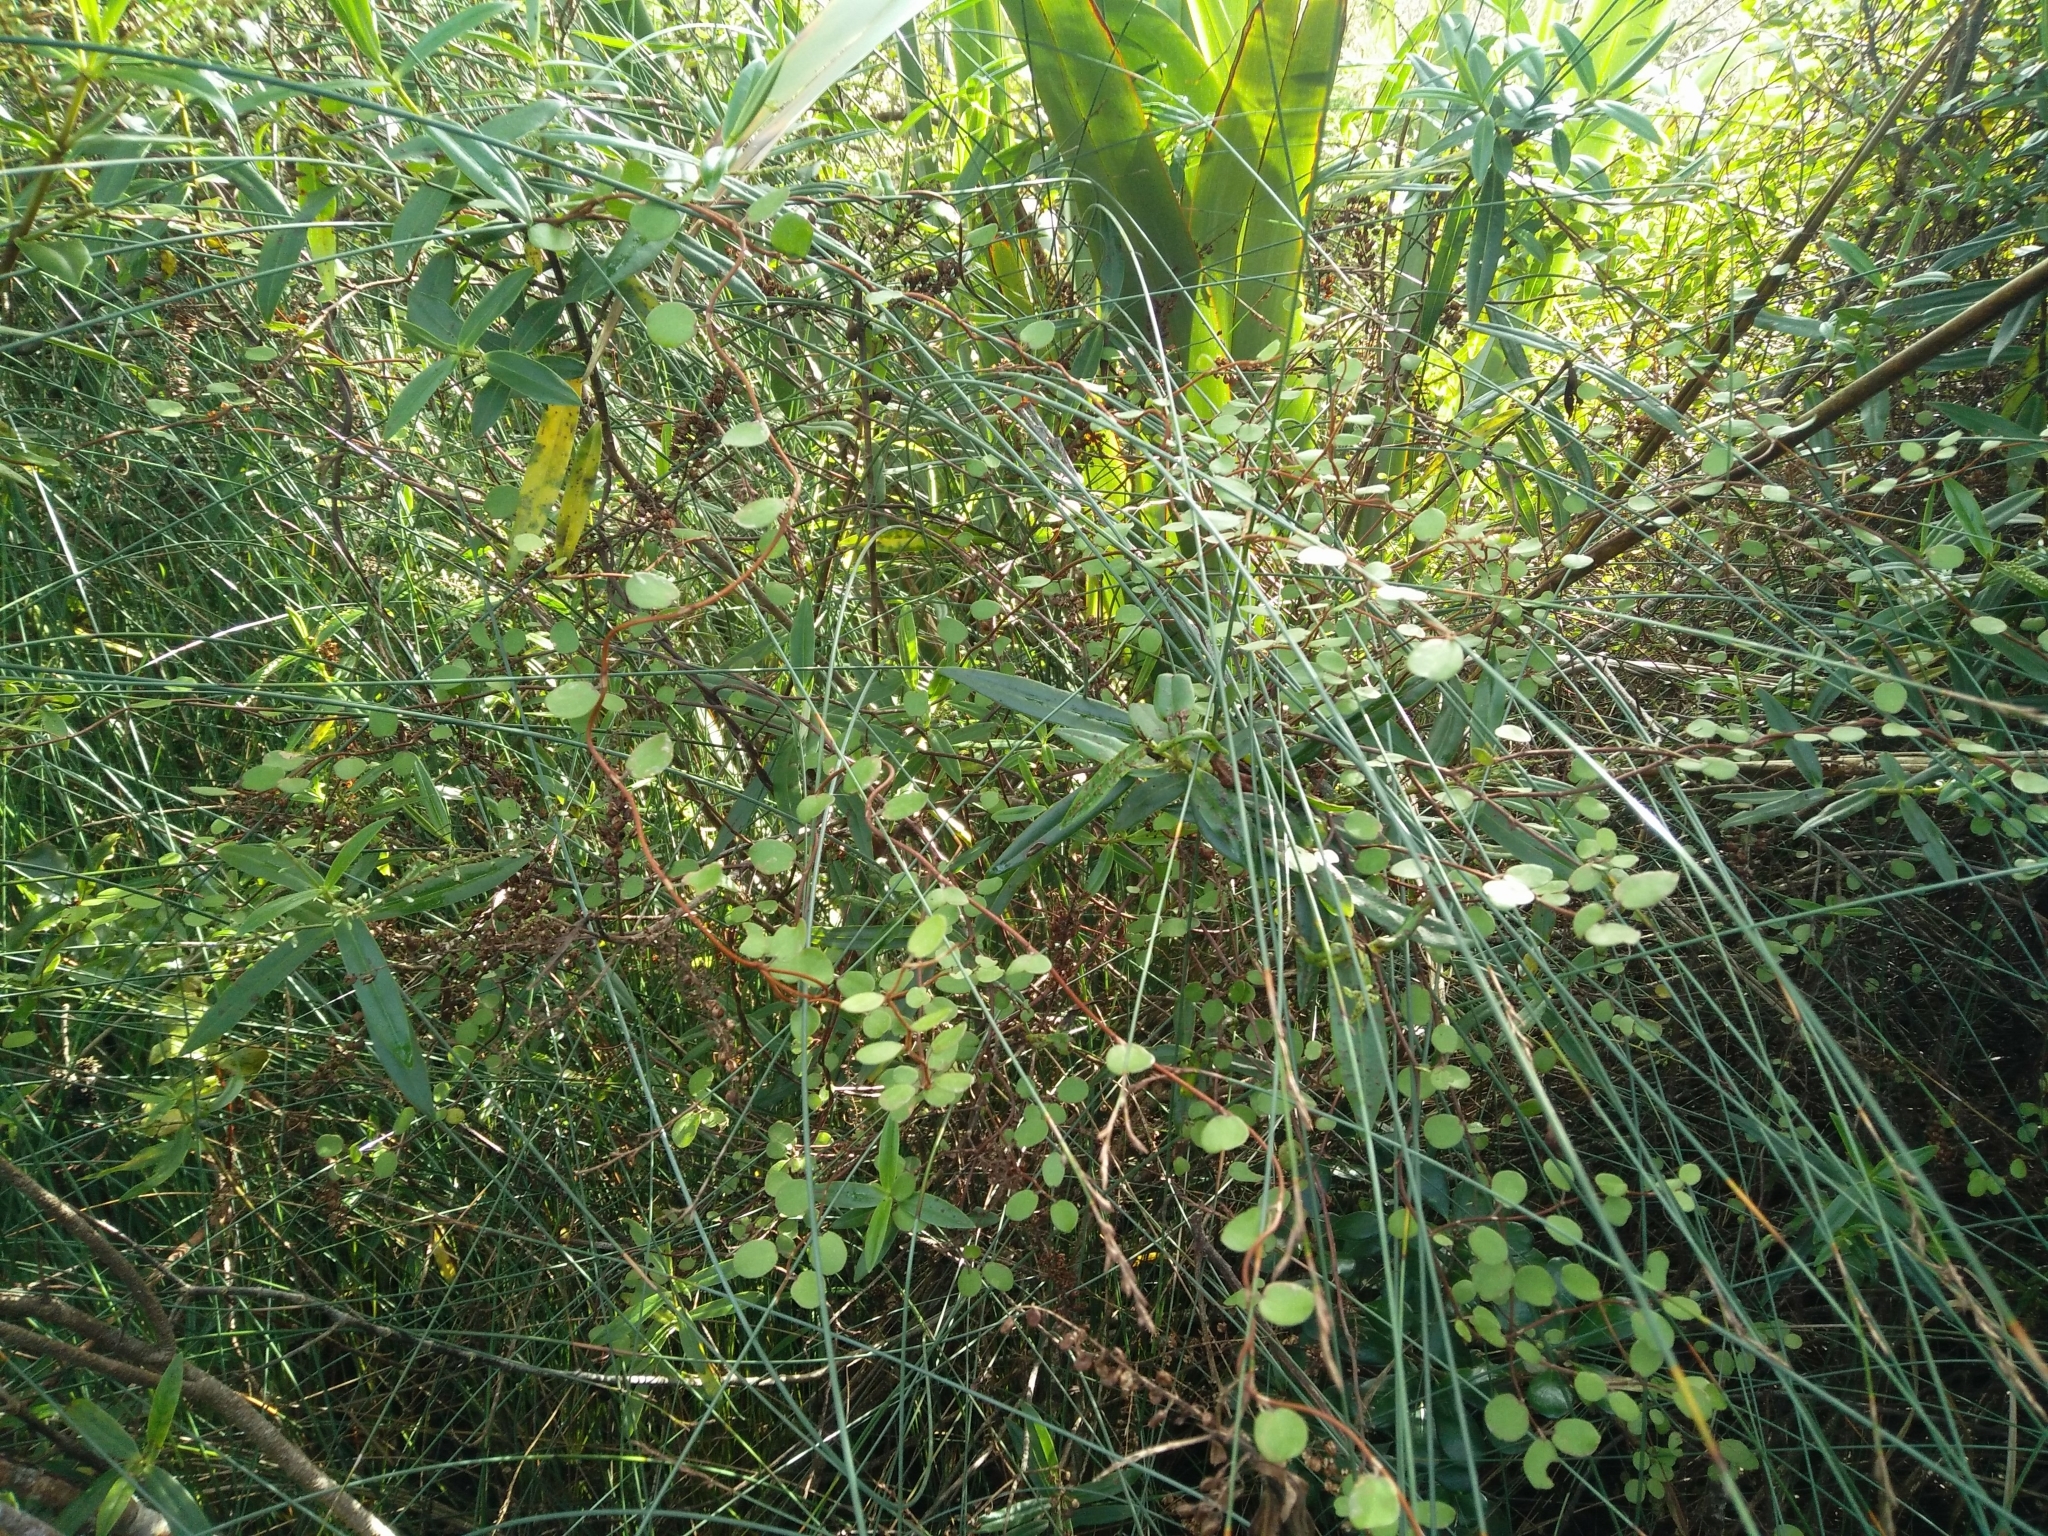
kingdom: Plantae
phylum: Tracheophyta
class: Magnoliopsida
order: Caryophyllales
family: Polygonaceae
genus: Muehlenbeckia
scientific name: Muehlenbeckia complexa
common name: Wireplant
